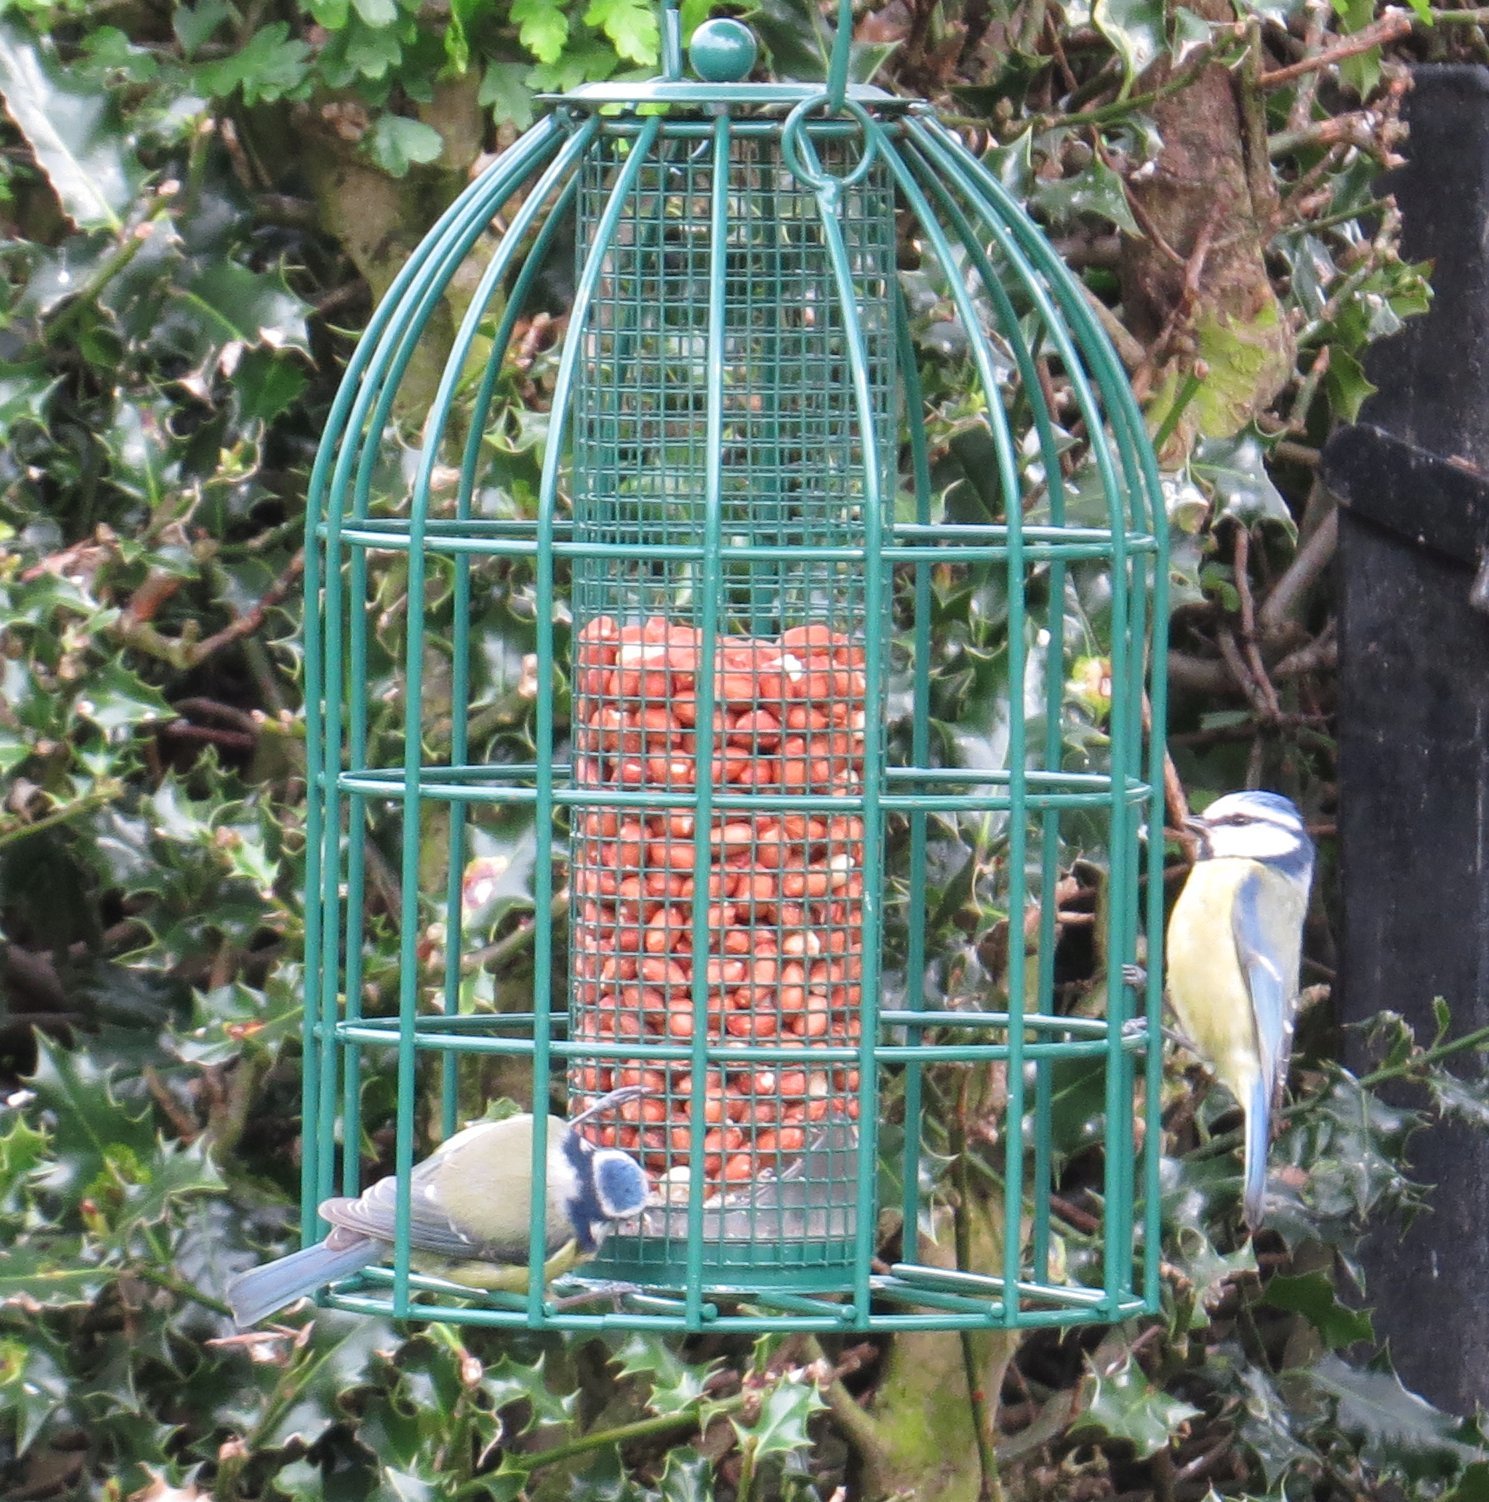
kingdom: Animalia
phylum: Chordata
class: Aves
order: Passeriformes
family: Paridae
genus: Cyanistes
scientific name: Cyanistes caeruleus
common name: Eurasian blue tit
